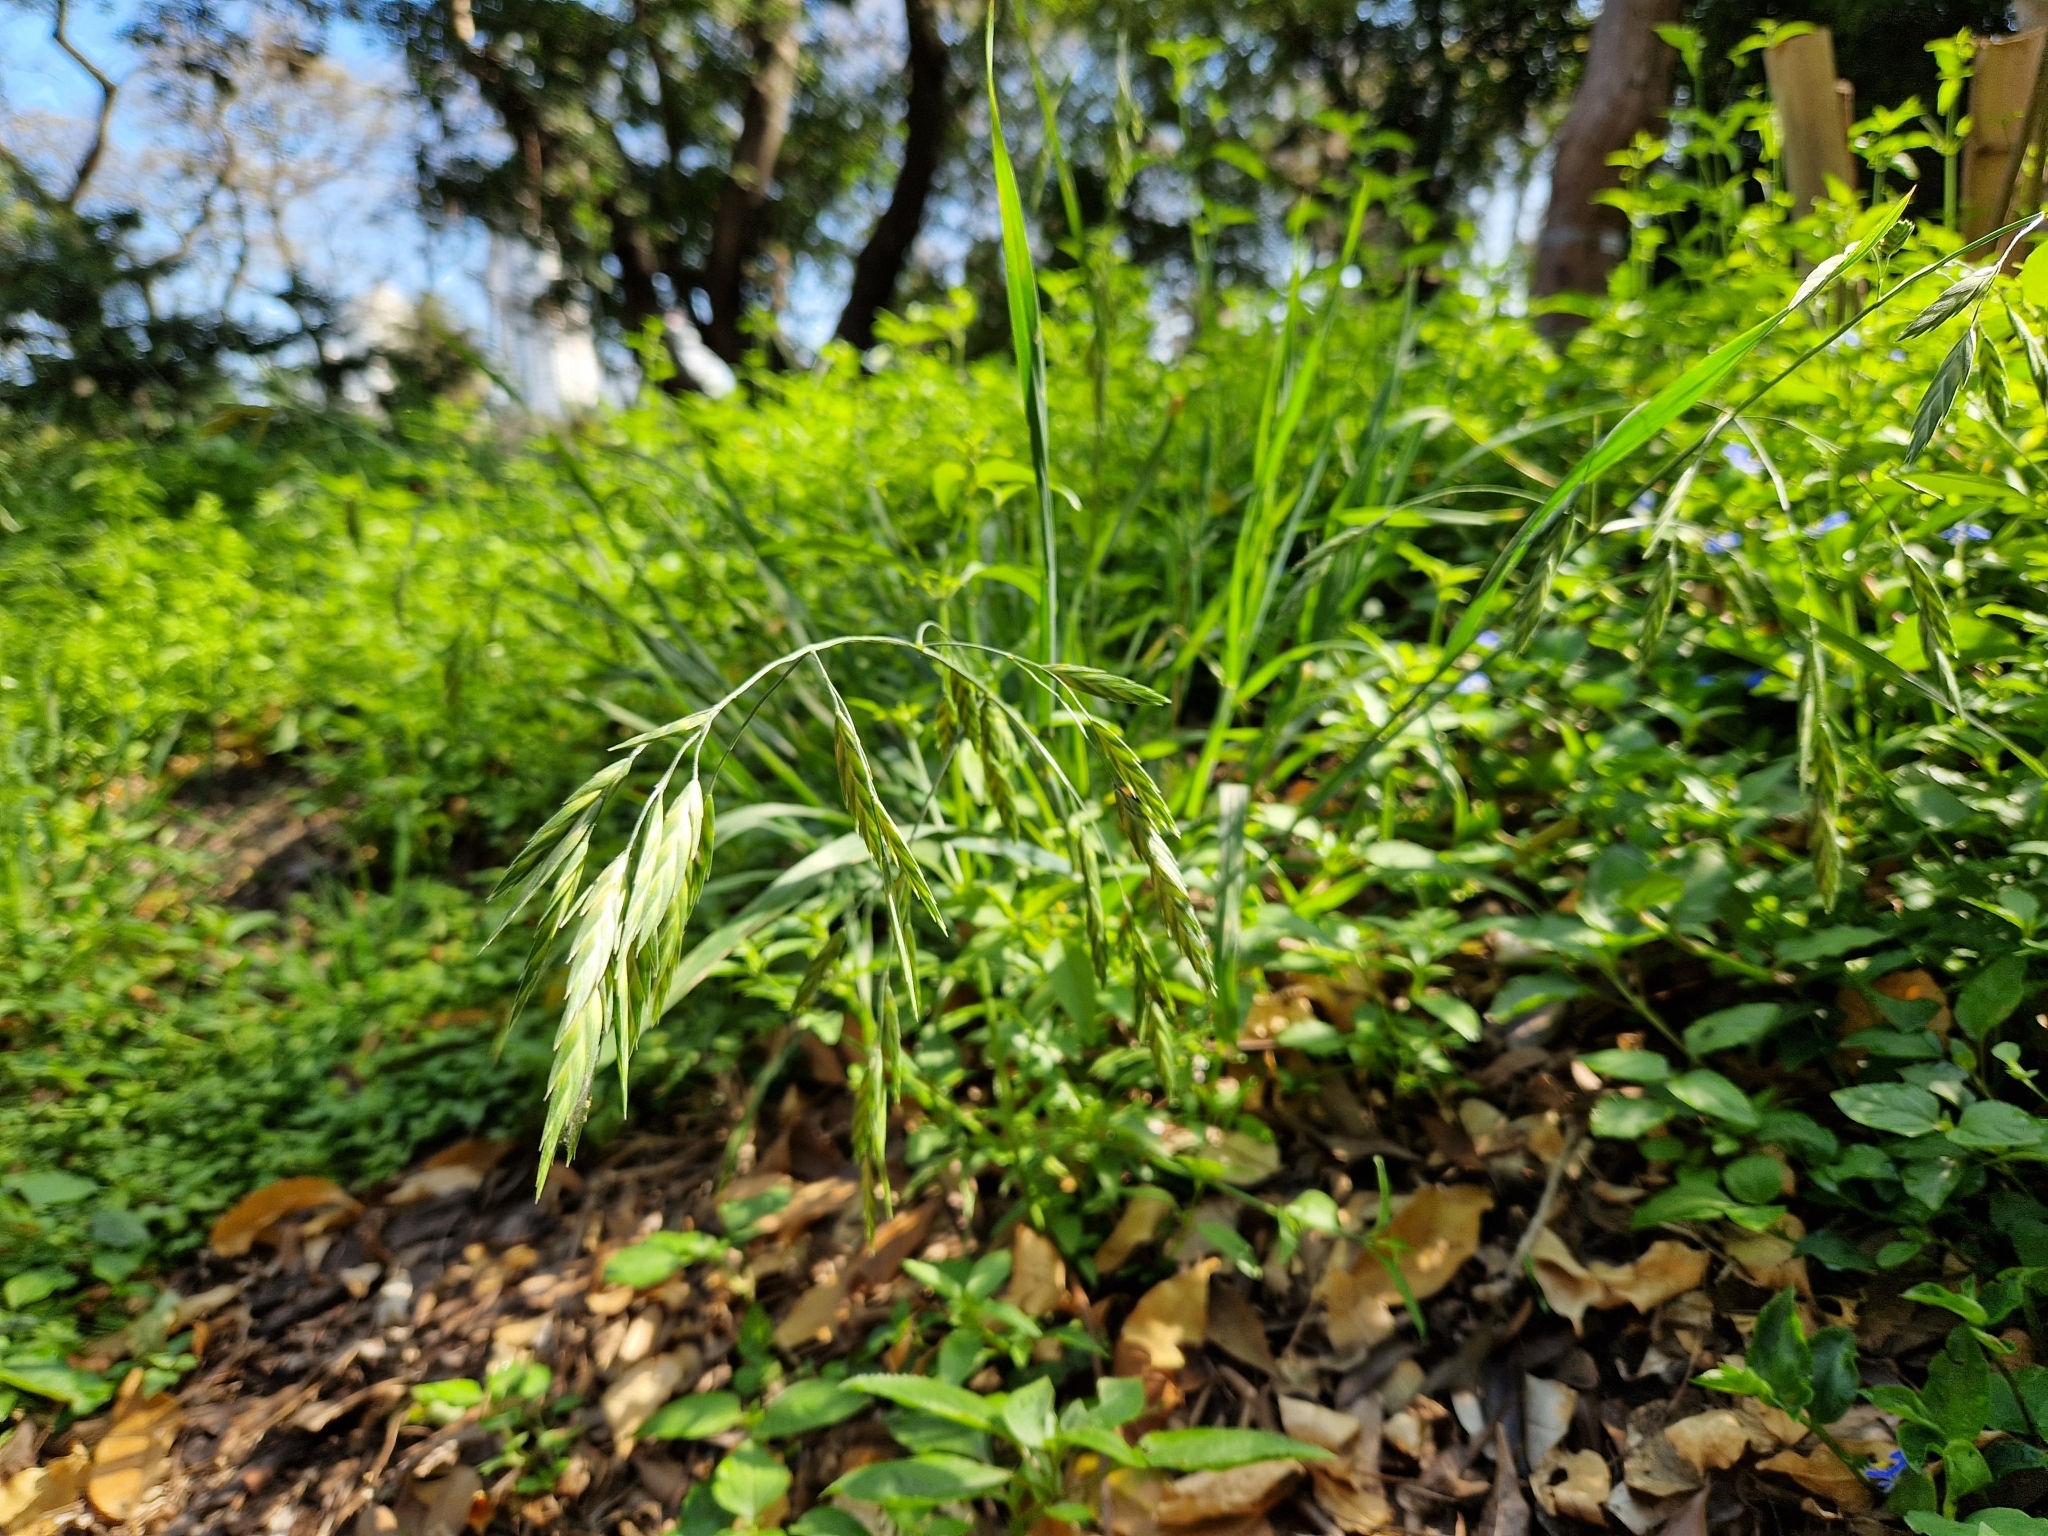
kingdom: Plantae
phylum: Tracheophyta
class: Liliopsida
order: Poales
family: Poaceae
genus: Bromus
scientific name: Bromus catharticus
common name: Rescuegrass
